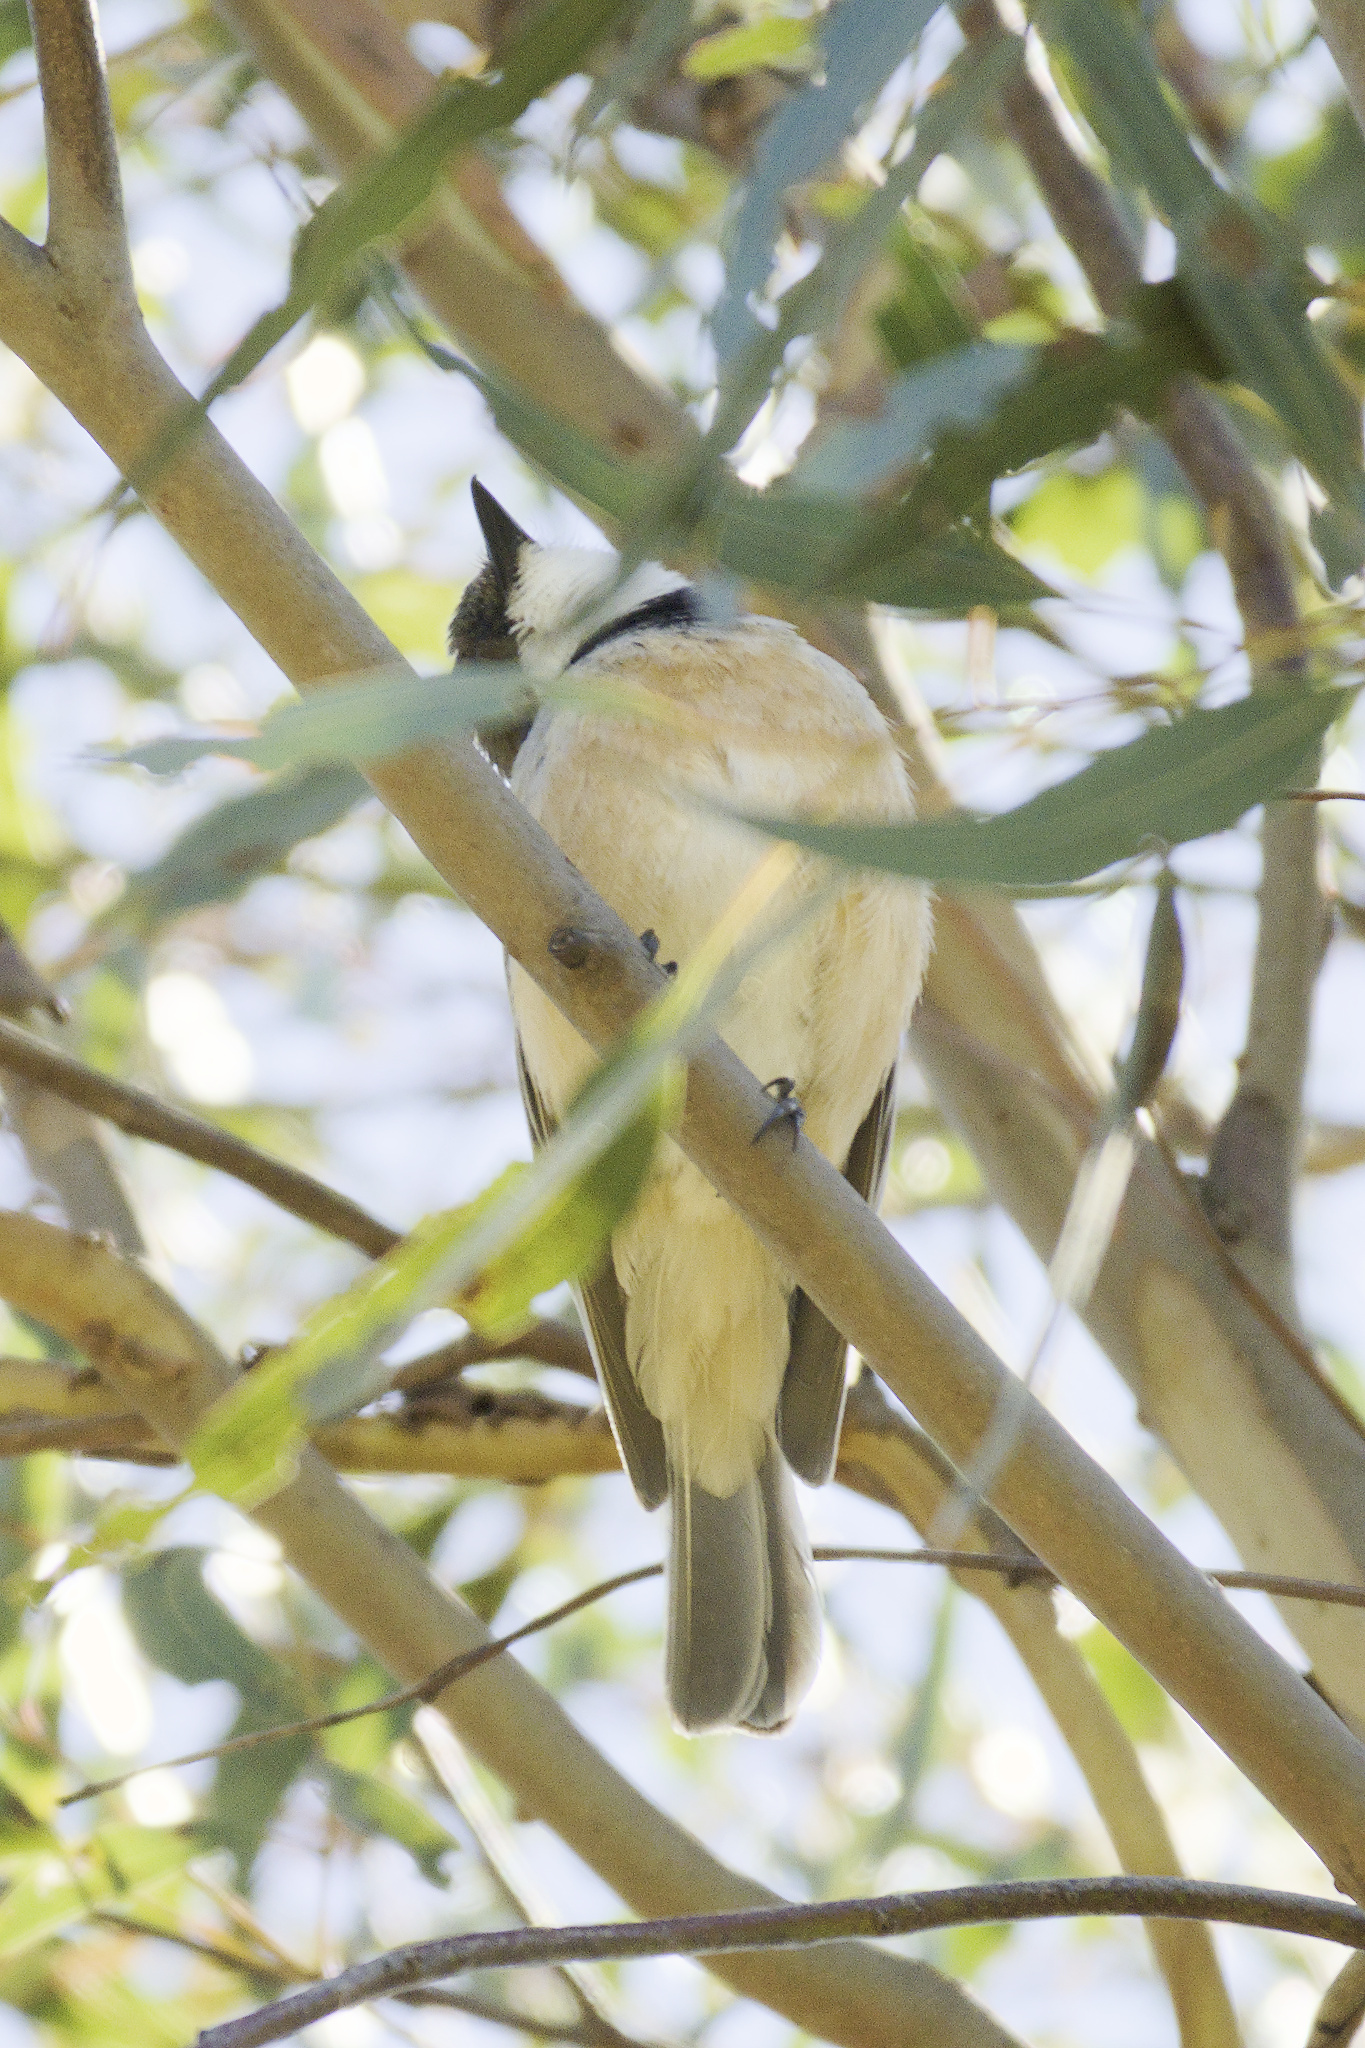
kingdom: Animalia
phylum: Chordata
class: Aves
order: Passeriformes
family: Pachycephalidae
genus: Pachycephala
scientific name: Pachycephala rufiventris
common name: Rufous whistler
